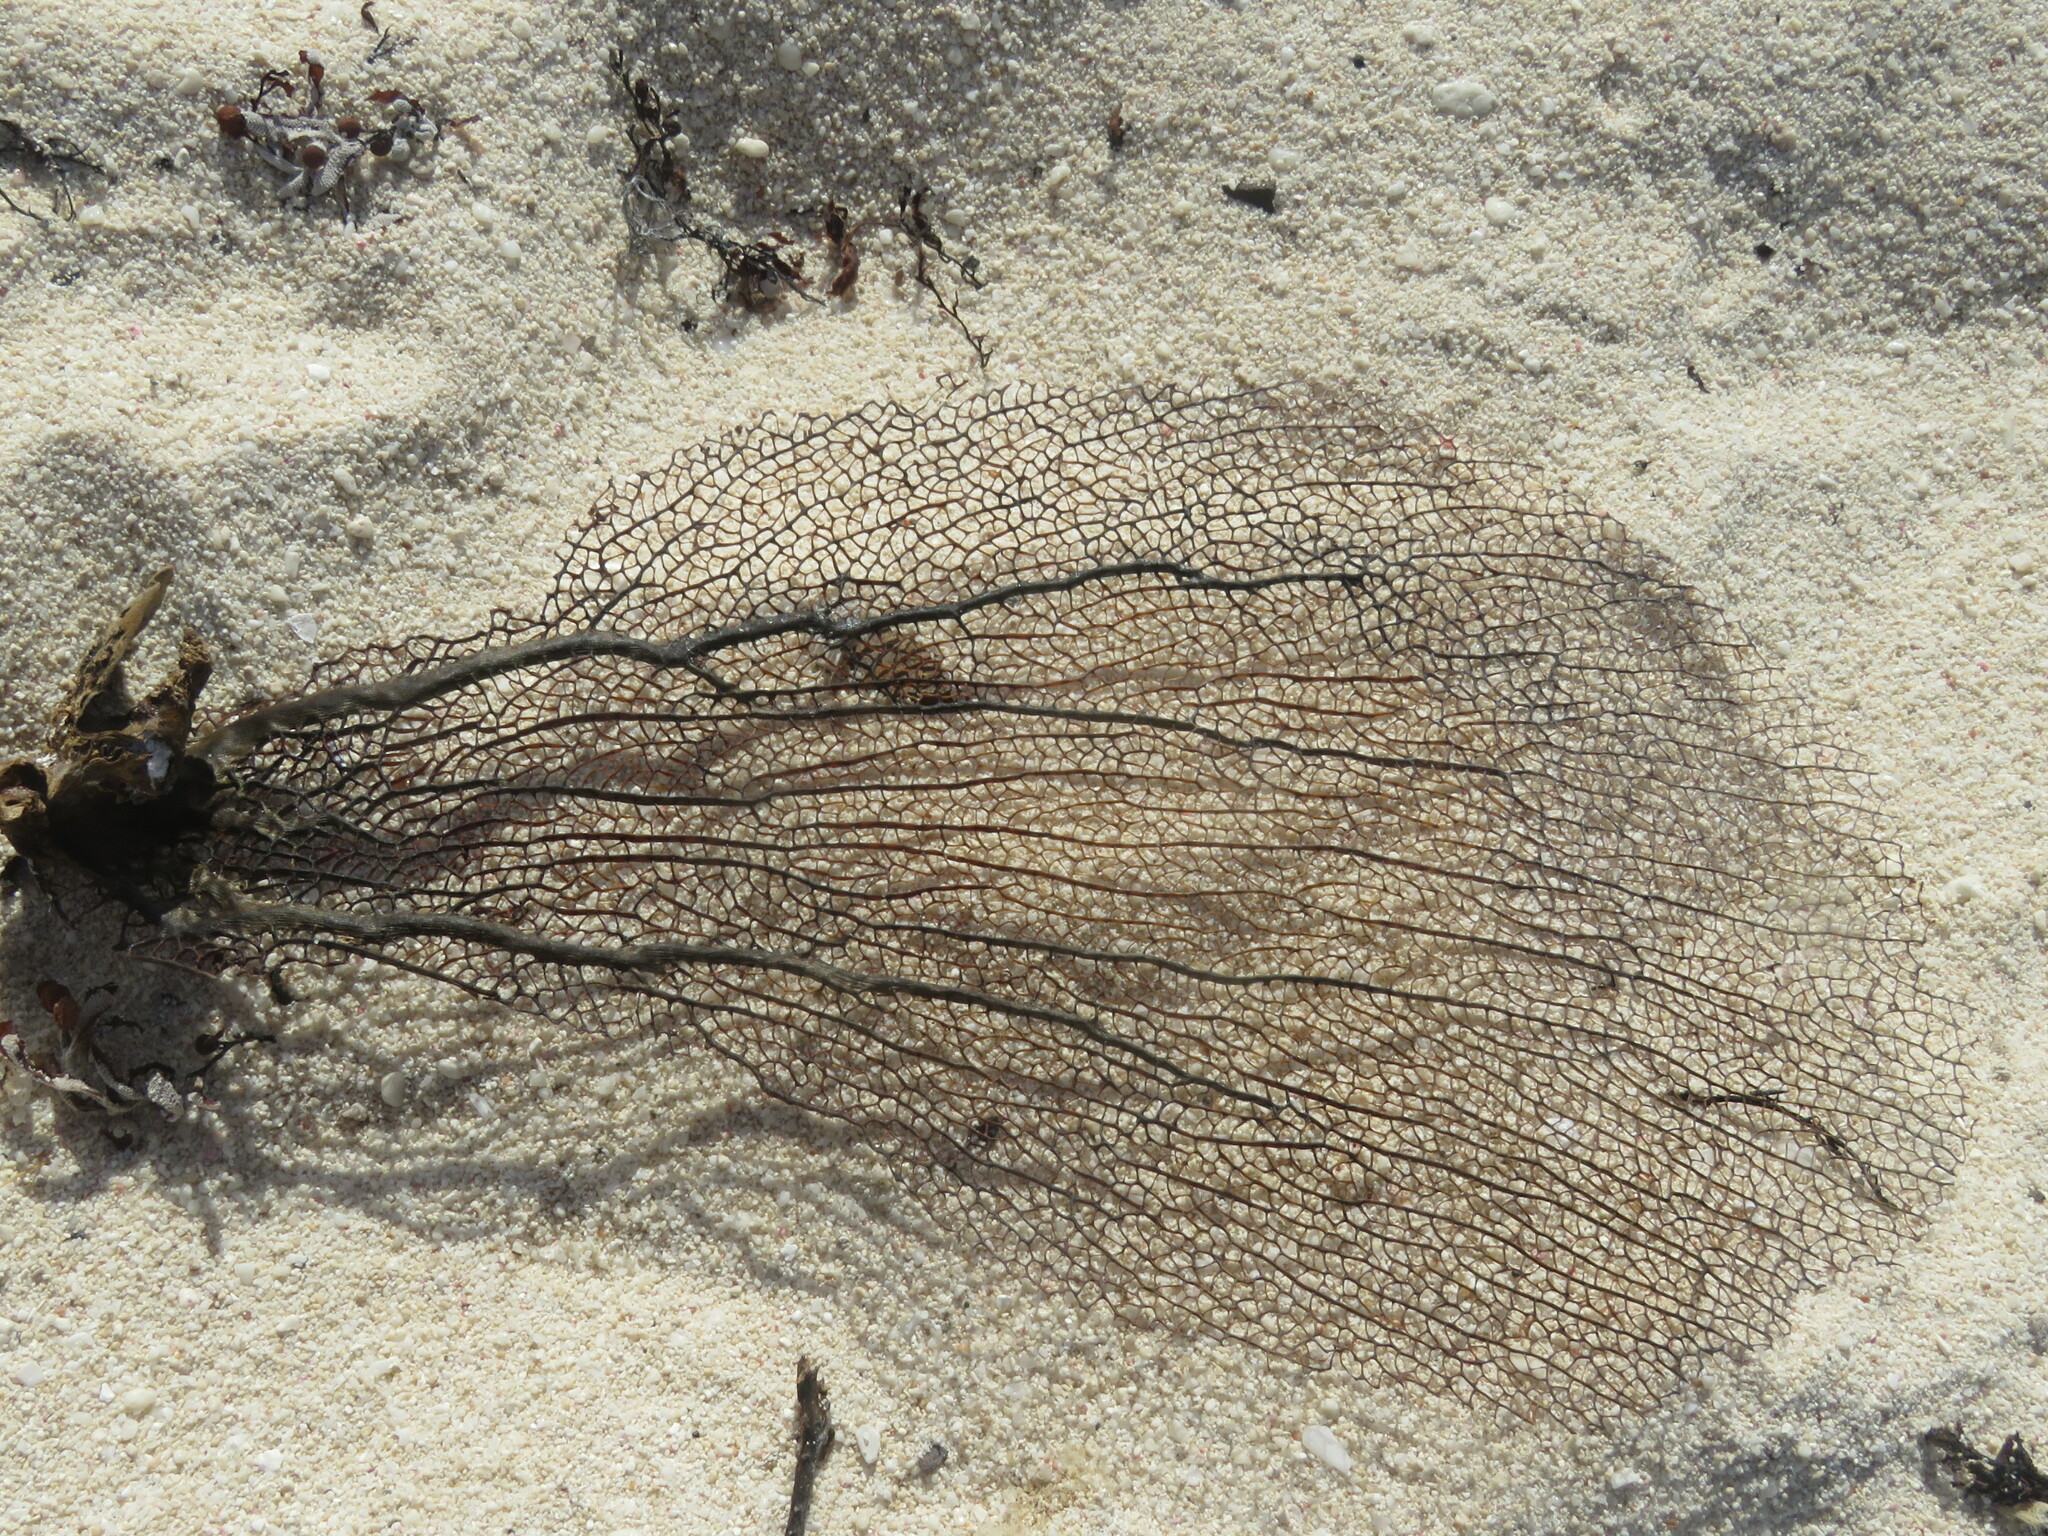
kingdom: Animalia
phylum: Cnidaria
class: Anthozoa
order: Malacalcyonacea
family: Gorgoniidae
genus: Gorgonia
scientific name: Gorgonia ventalina
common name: Common sea fan
